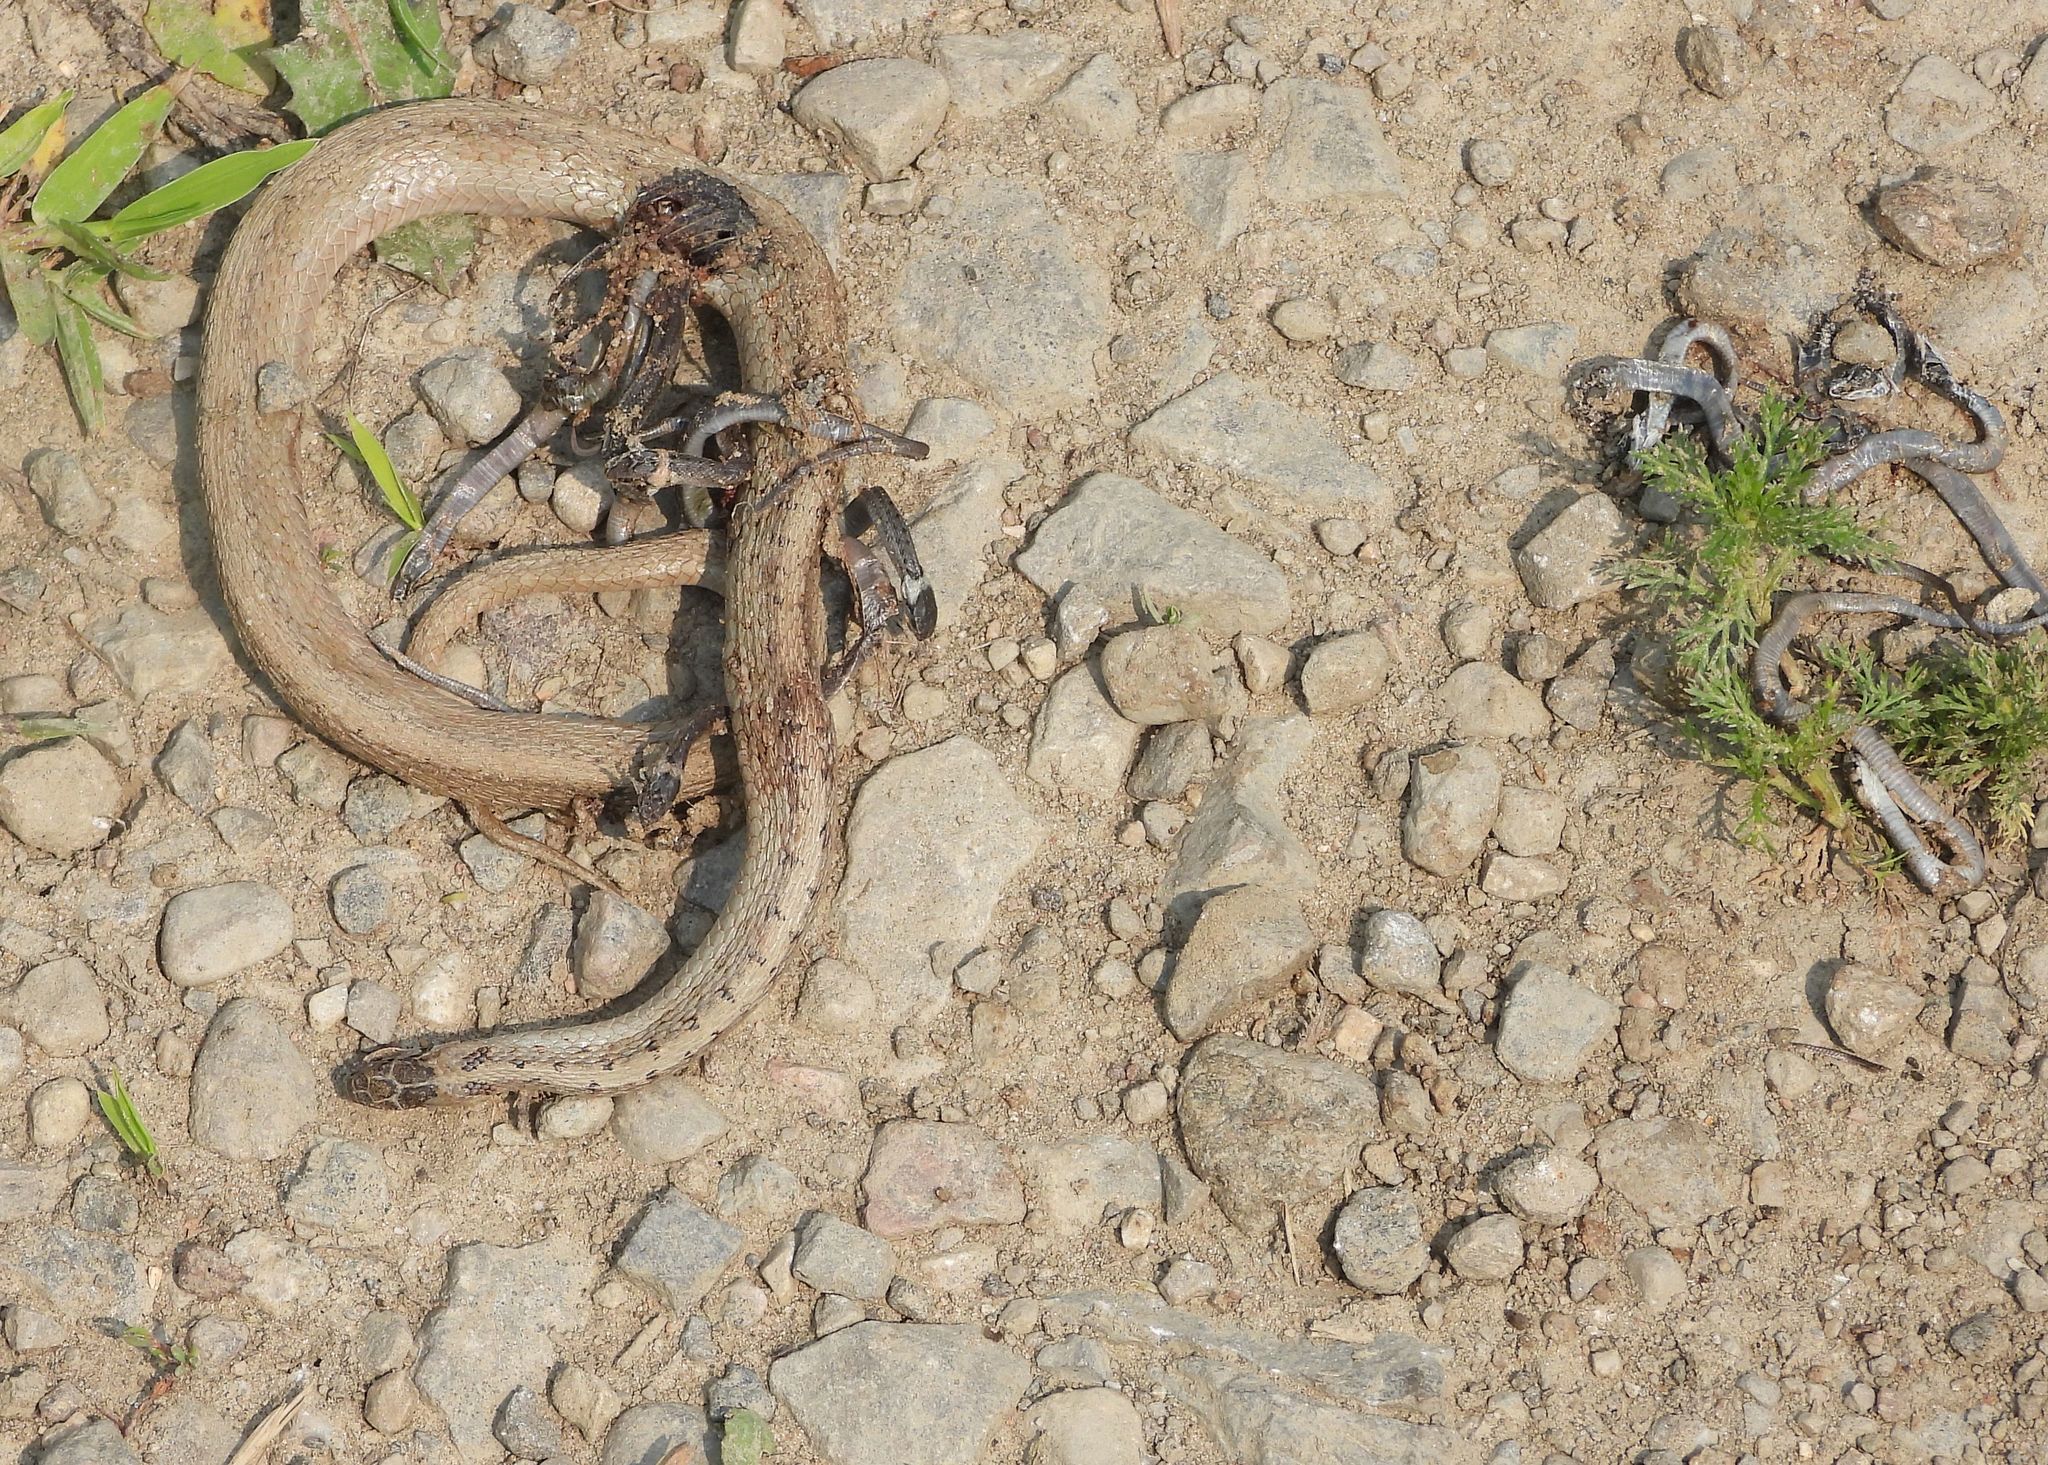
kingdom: Animalia
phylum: Chordata
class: Squamata
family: Colubridae
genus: Storeria
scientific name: Storeria dekayi
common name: (dekay’s) brown snake
